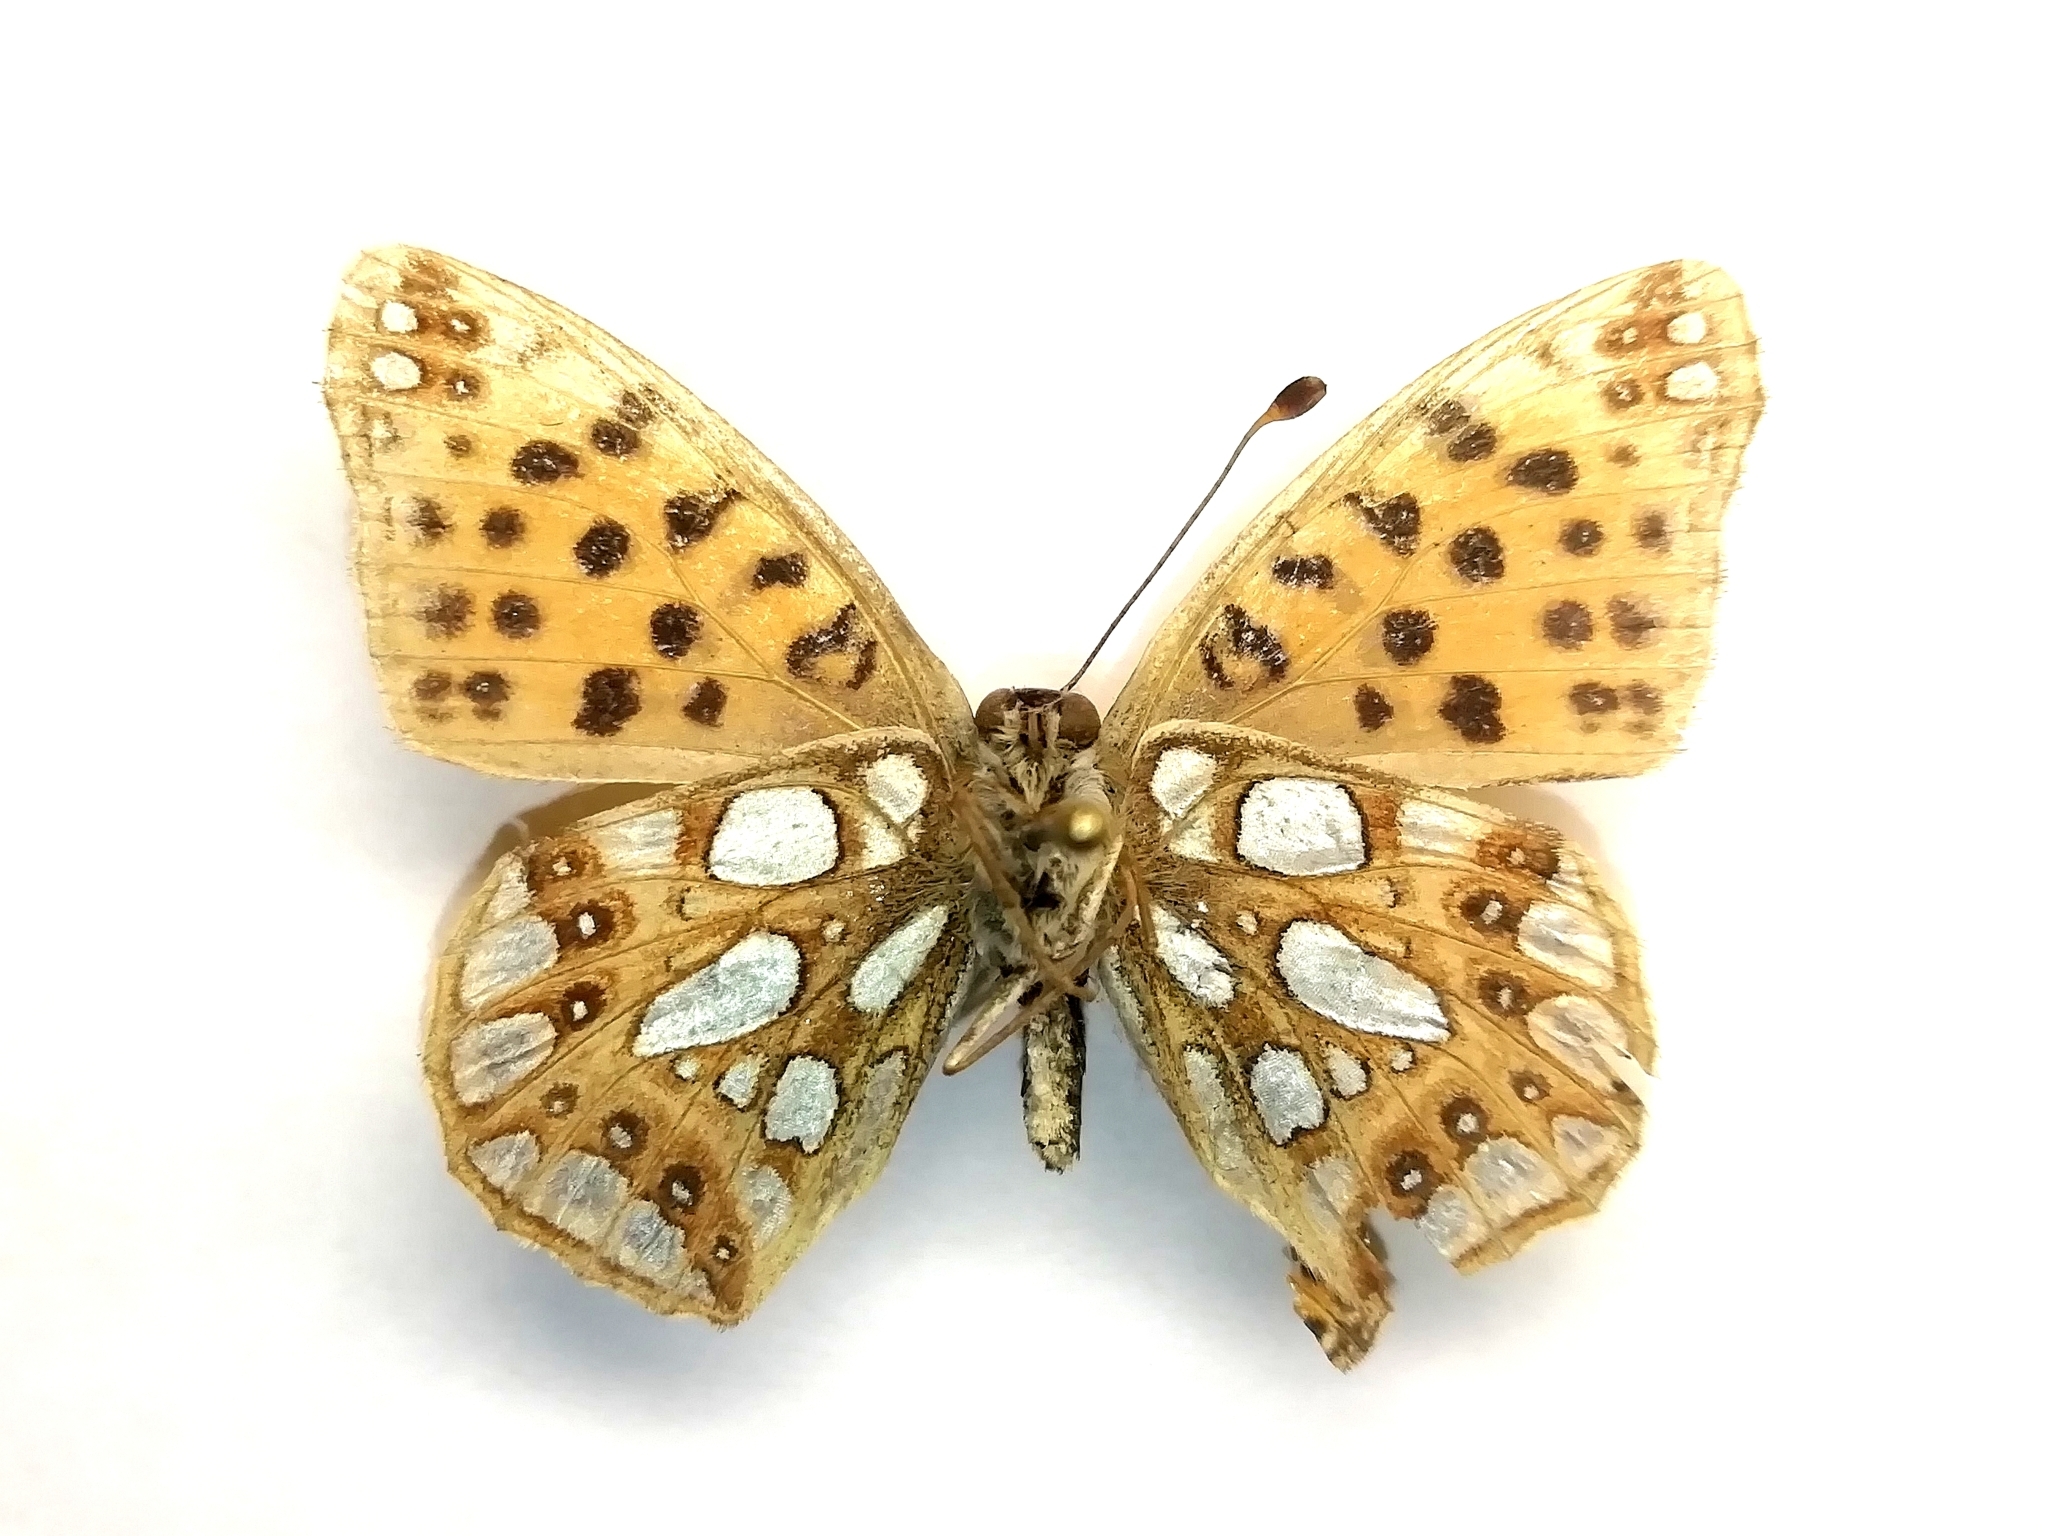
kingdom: Animalia
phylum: Arthropoda
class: Insecta
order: Lepidoptera
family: Nymphalidae
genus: Issoria
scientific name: Issoria lathonia
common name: Queen of spain fritillary
